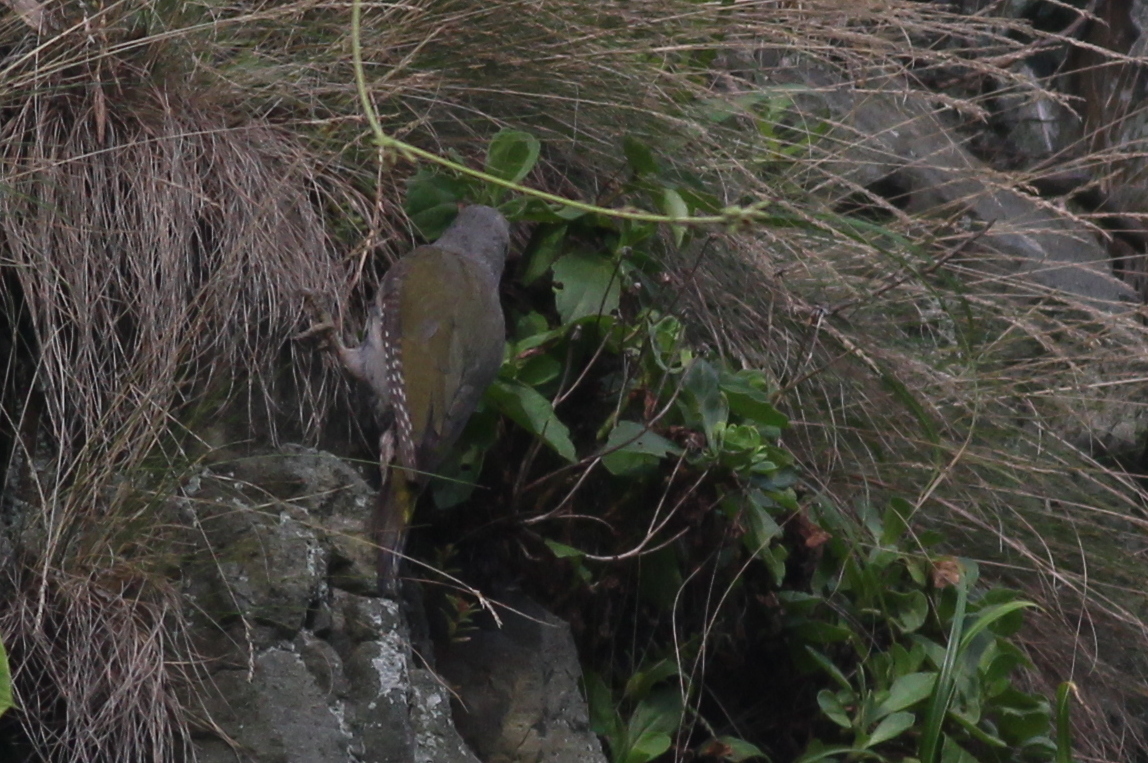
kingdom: Animalia
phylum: Chordata
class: Aves
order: Piciformes
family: Picidae
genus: Picus
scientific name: Picus canus
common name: Grey-headed woodpecker
